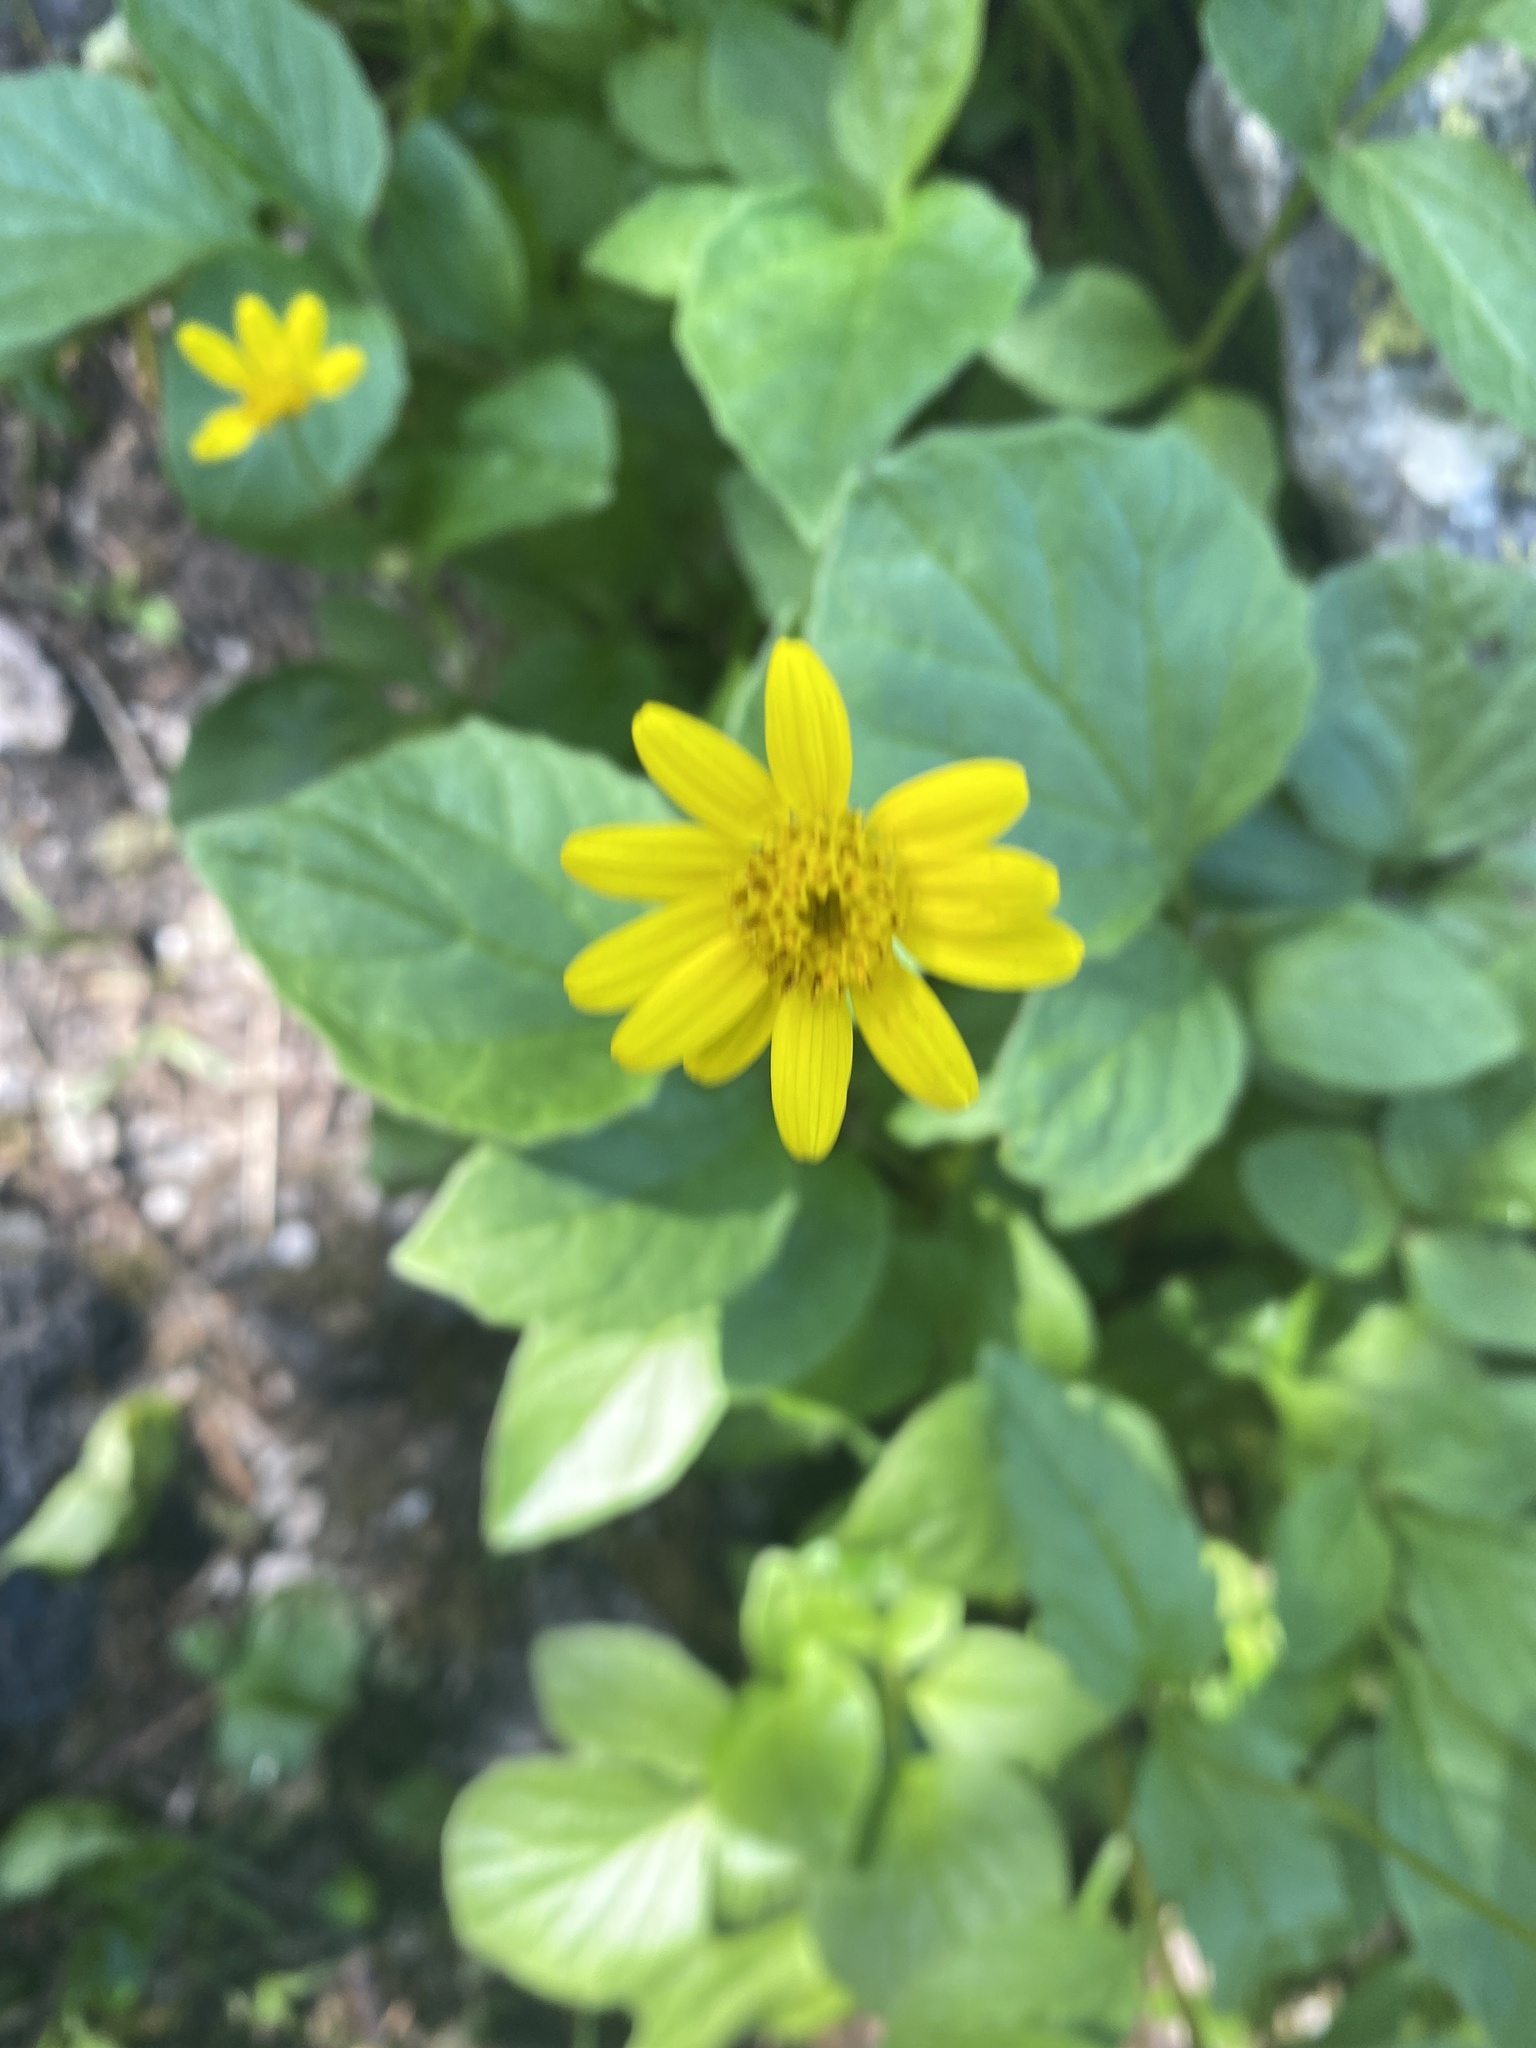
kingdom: Plantae
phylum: Tracheophyta
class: Magnoliopsida
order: Asterales
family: Asteraceae
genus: Arnica
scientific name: Arnica latifolia
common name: Arnica
